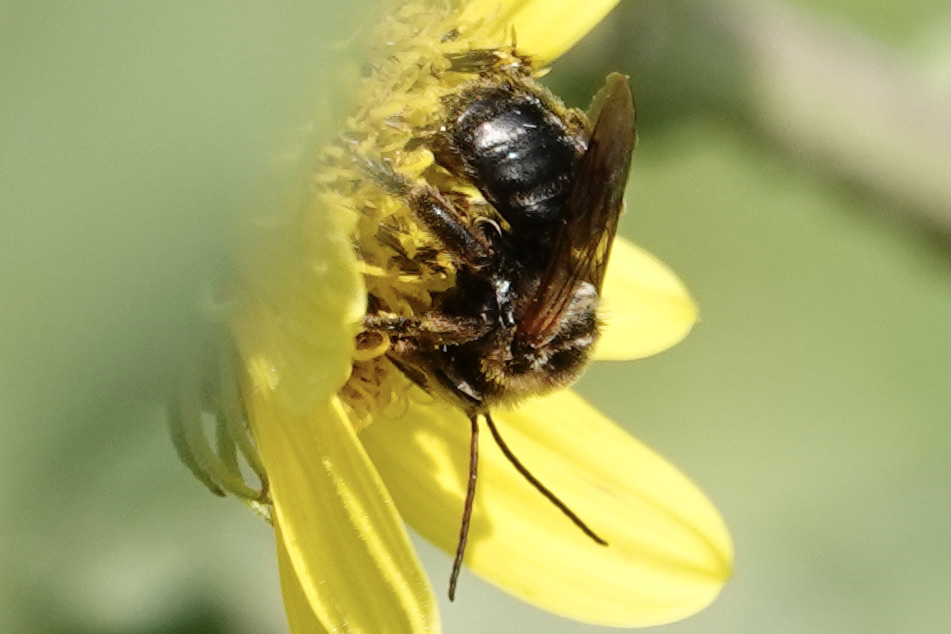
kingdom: Animalia
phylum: Arthropoda
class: Insecta
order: Hymenoptera
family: Apidae
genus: Svastra
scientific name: Svastra obliqua
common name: Oblique longhorn
